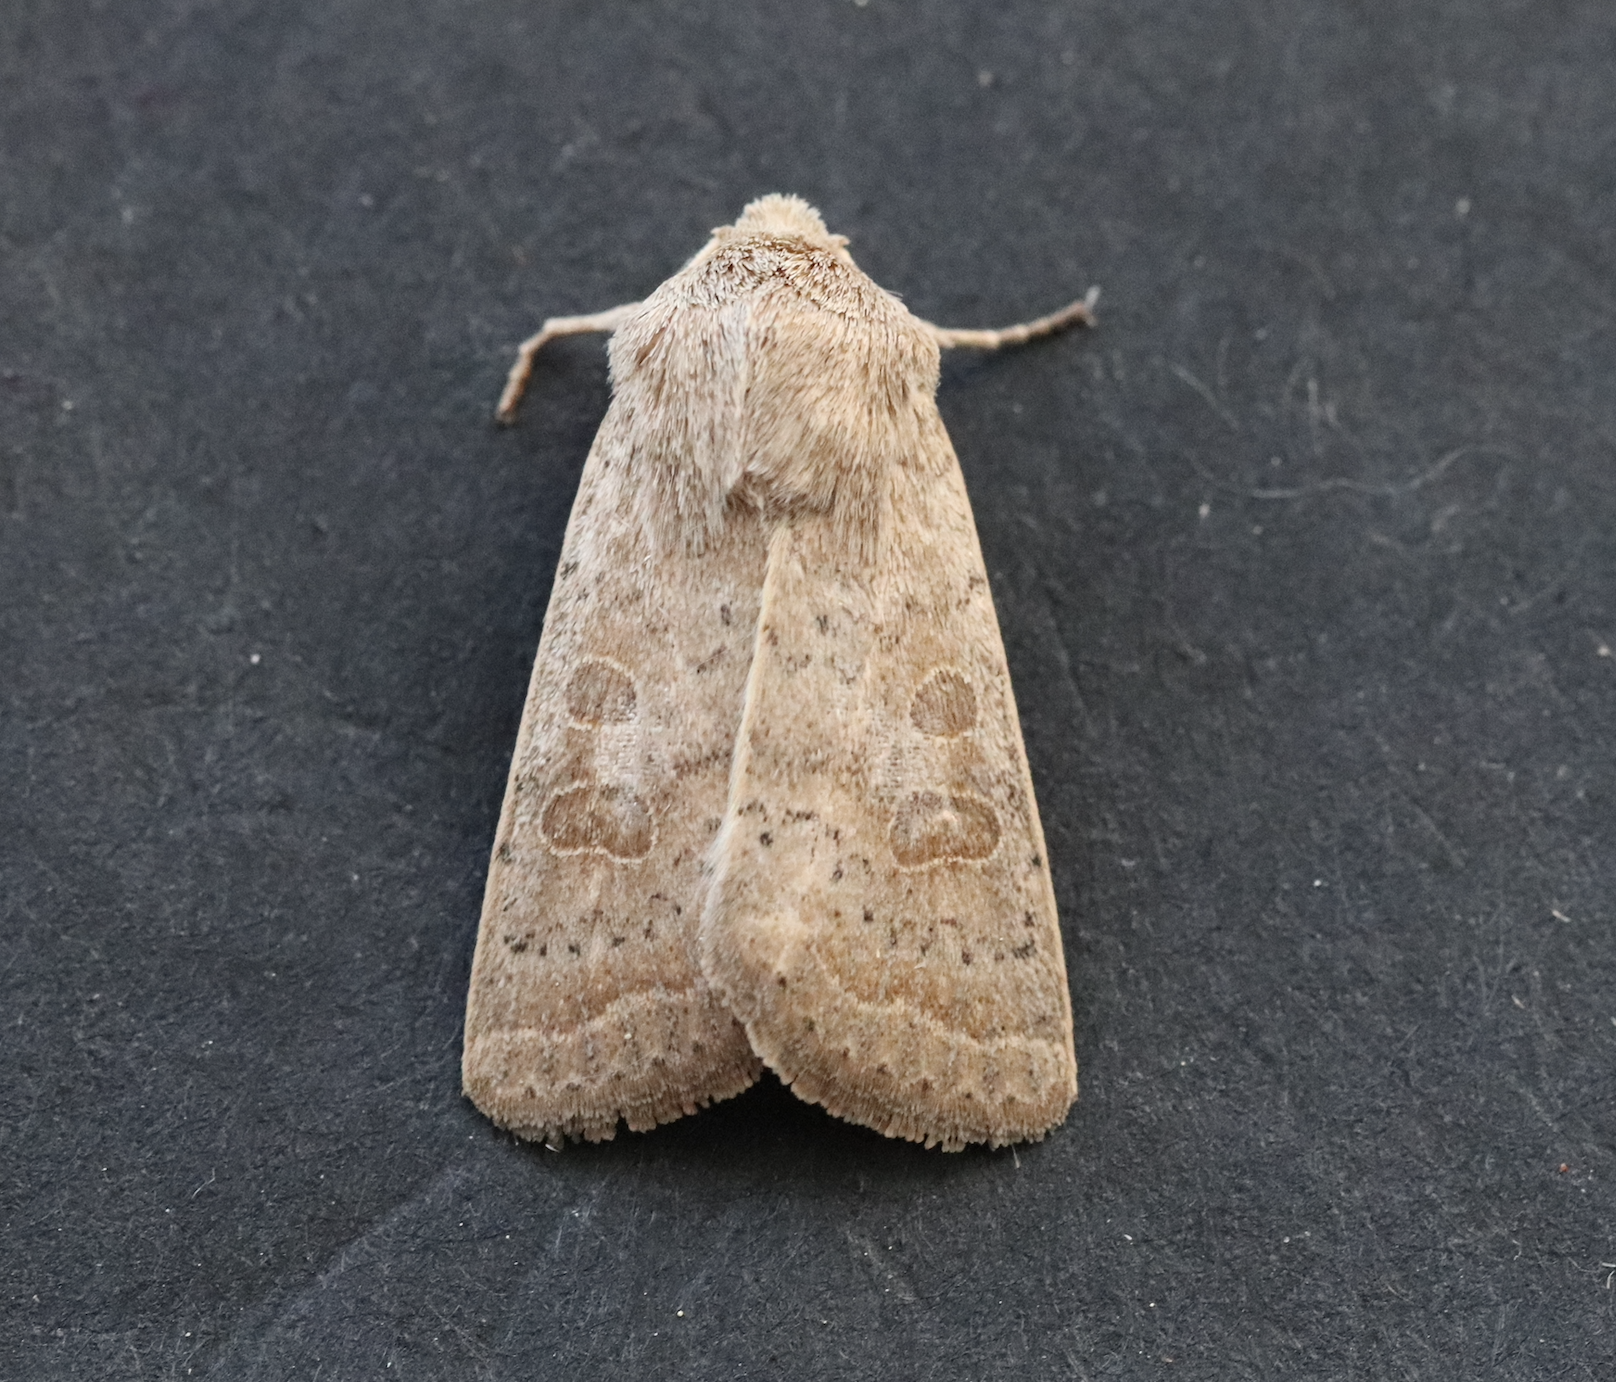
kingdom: Animalia
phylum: Arthropoda
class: Insecta
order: Lepidoptera
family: Noctuidae
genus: Hoplodrina
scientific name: Hoplodrina ambigua
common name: Vine's rustic
